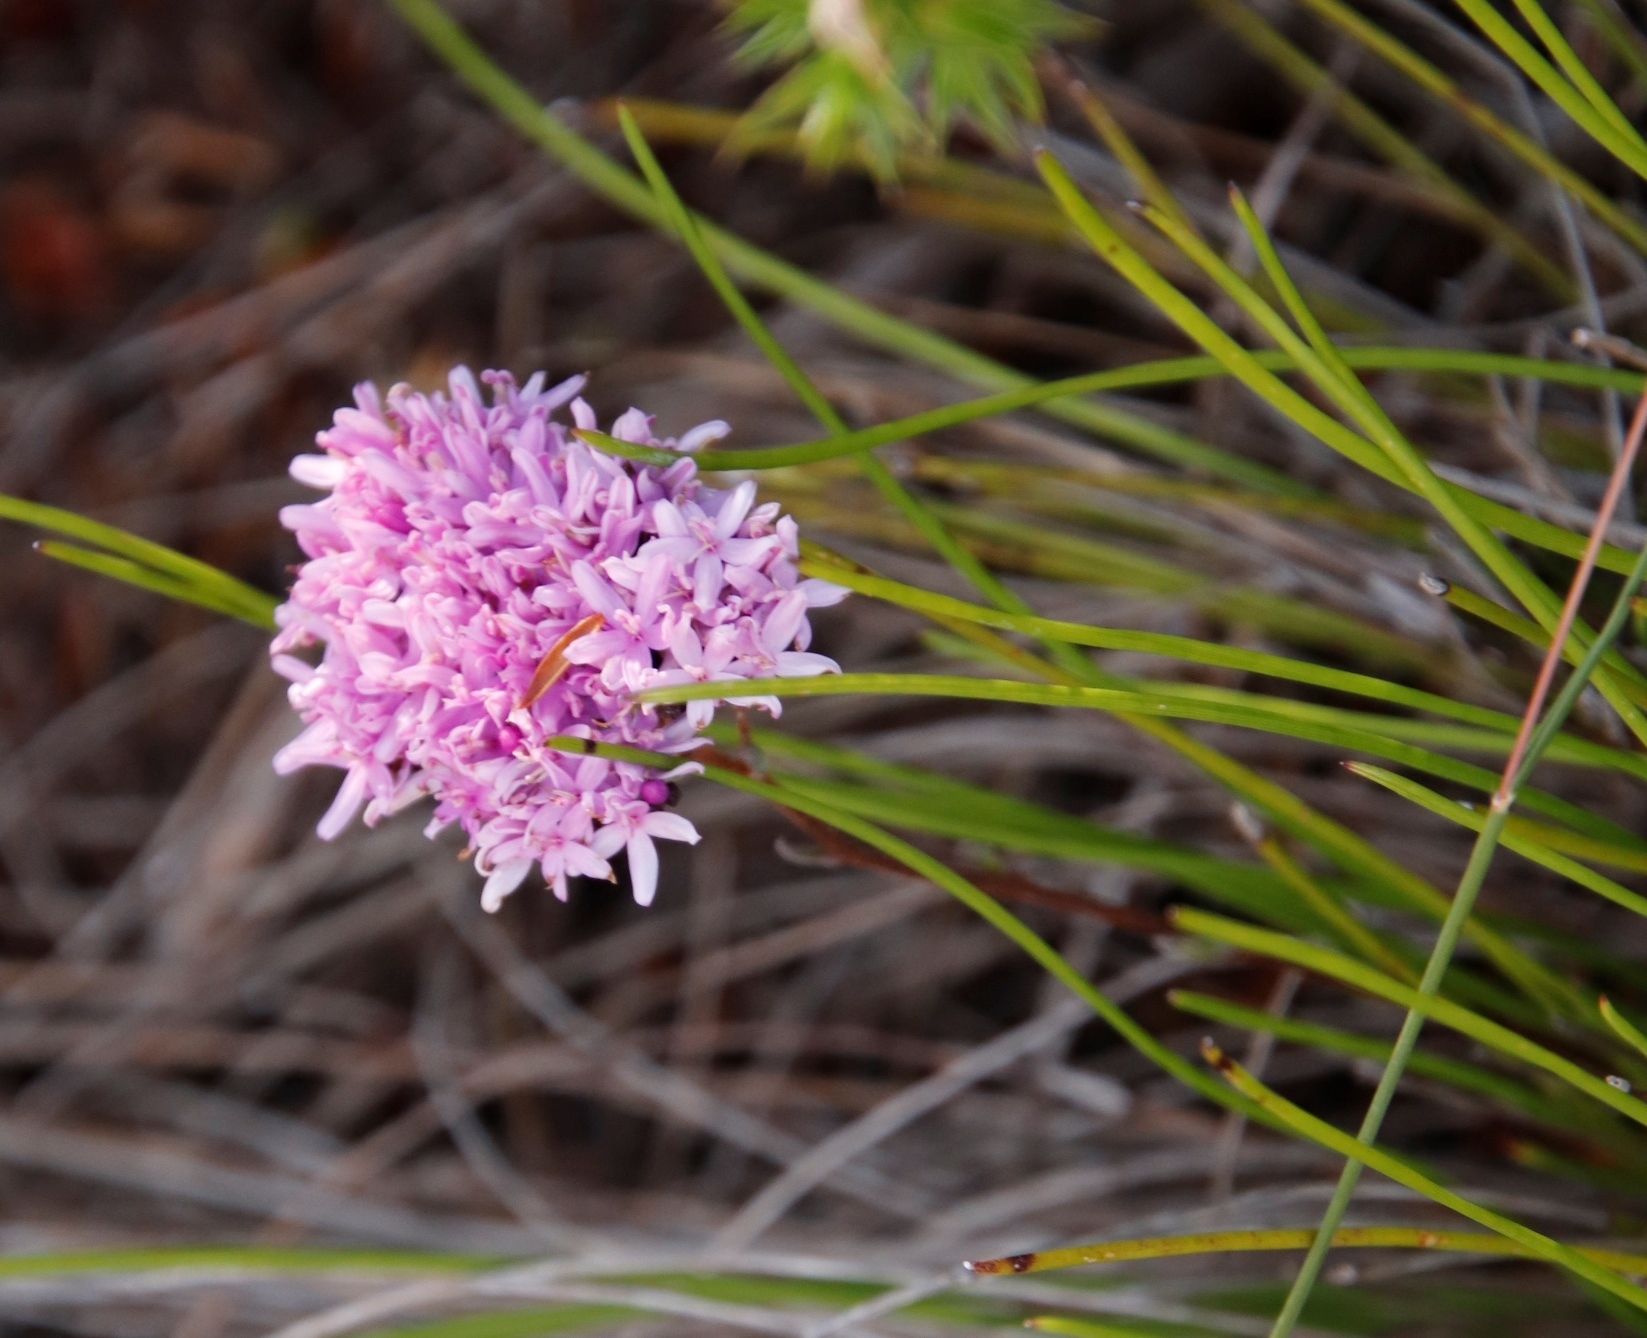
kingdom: Plantae
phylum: Tracheophyta
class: Magnoliopsida
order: Asterales
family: Asteraceae
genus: Corymbium
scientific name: Corymbium africanum
